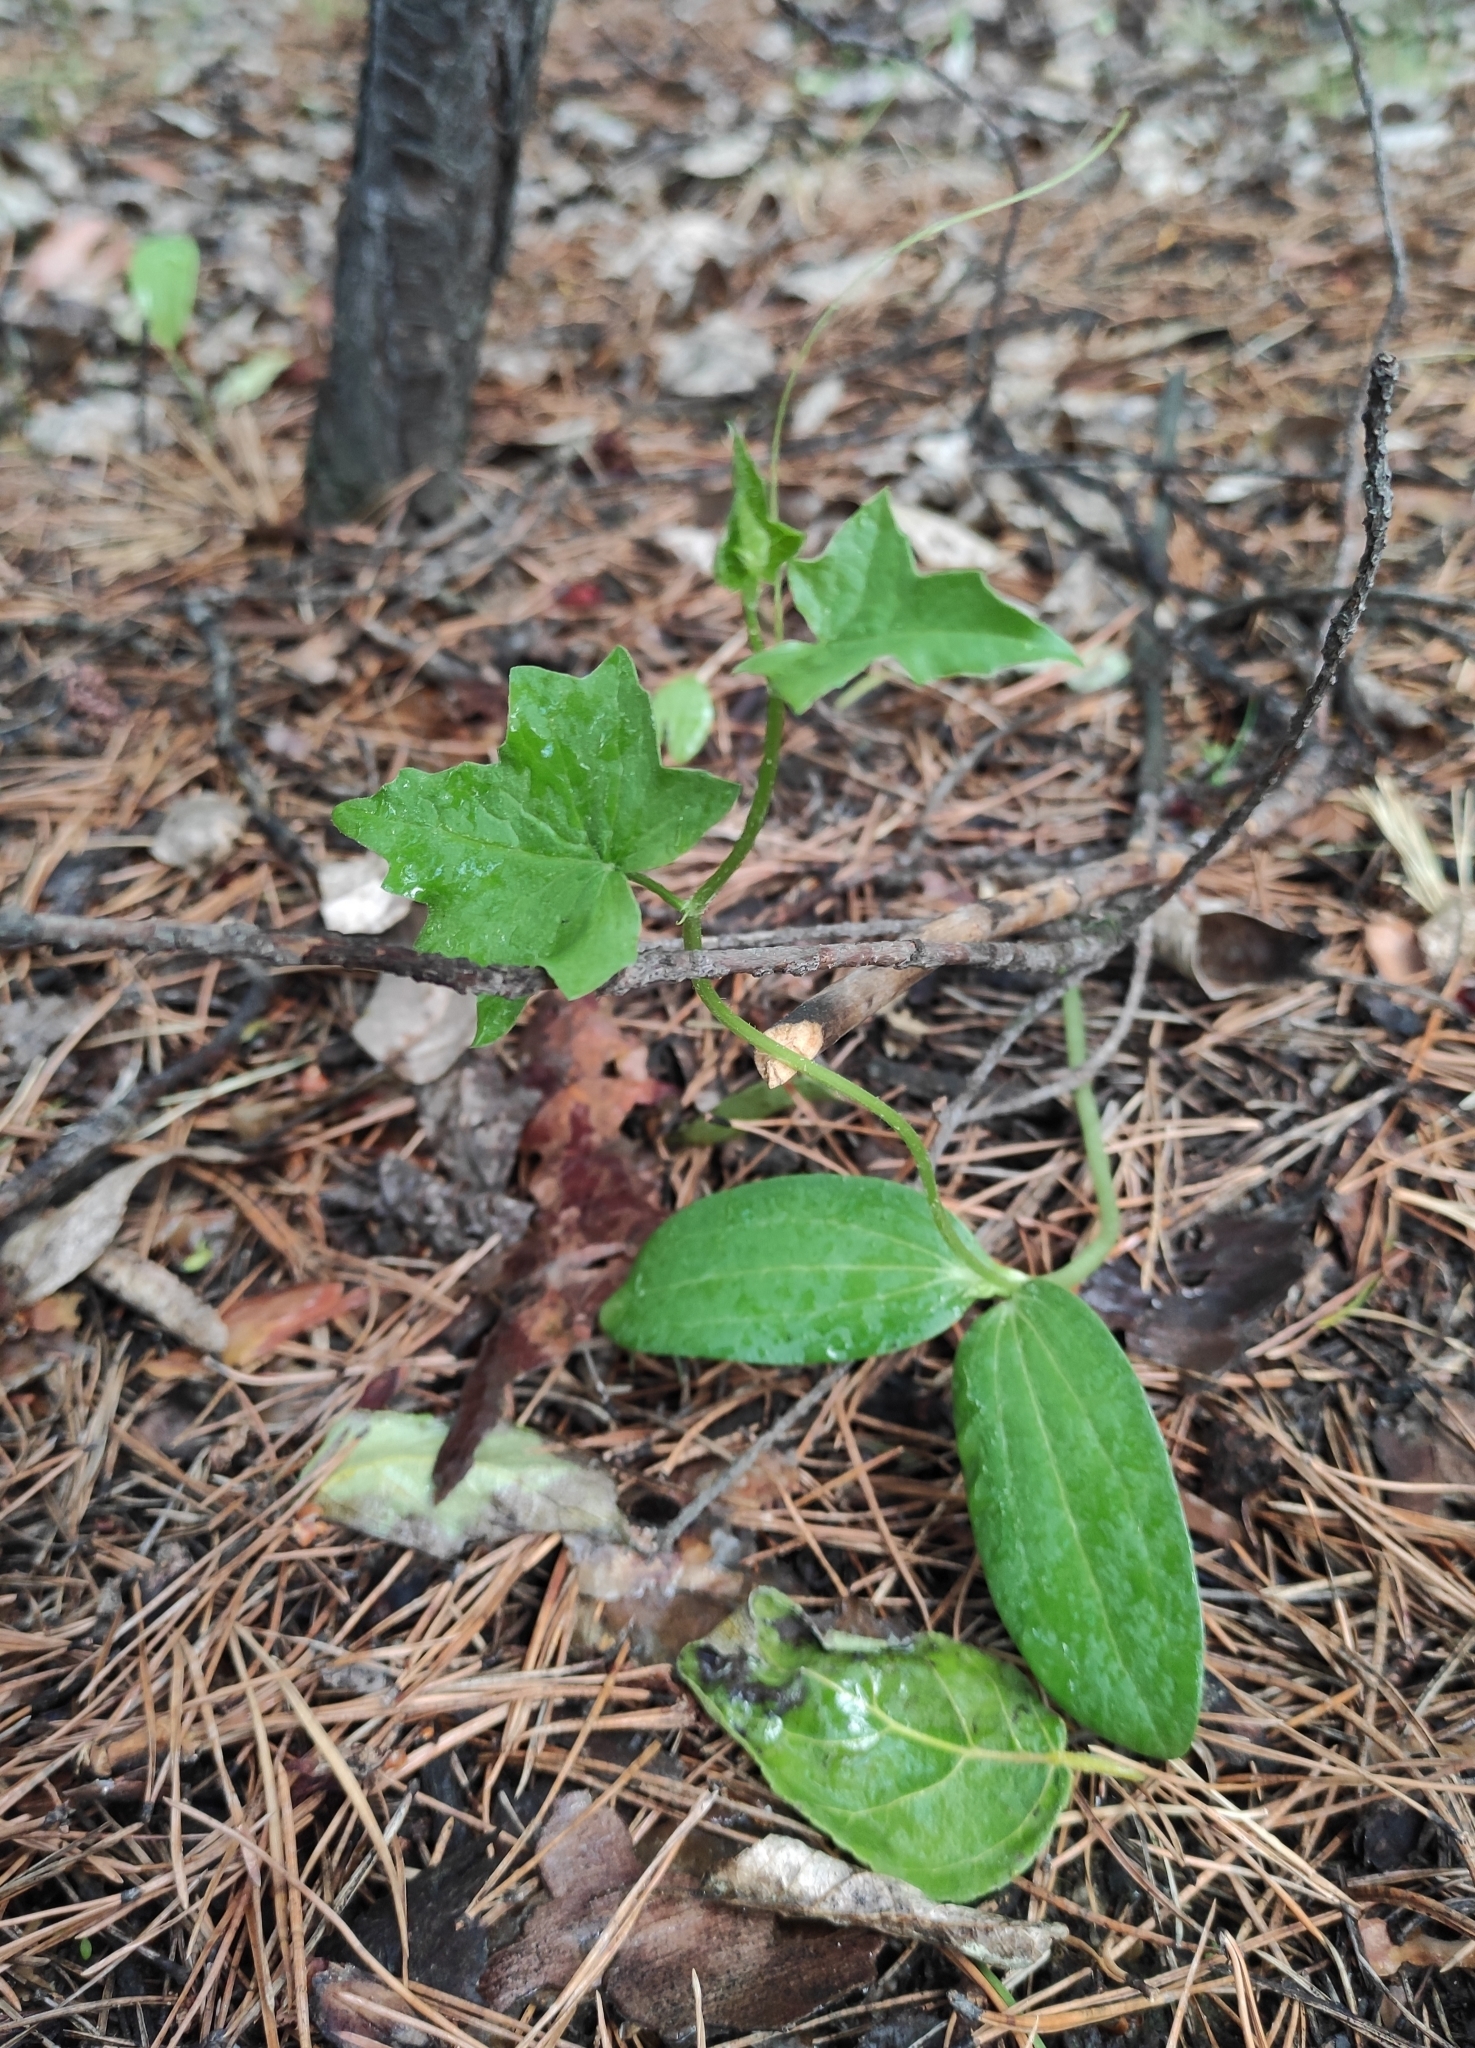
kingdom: Plantae
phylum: Tracheophyta
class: Magnoliopsida
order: Cucurbitales
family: Cucurbitaceae
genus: Echinocystis
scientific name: Echinocystis lobata
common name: Wild cucumber
